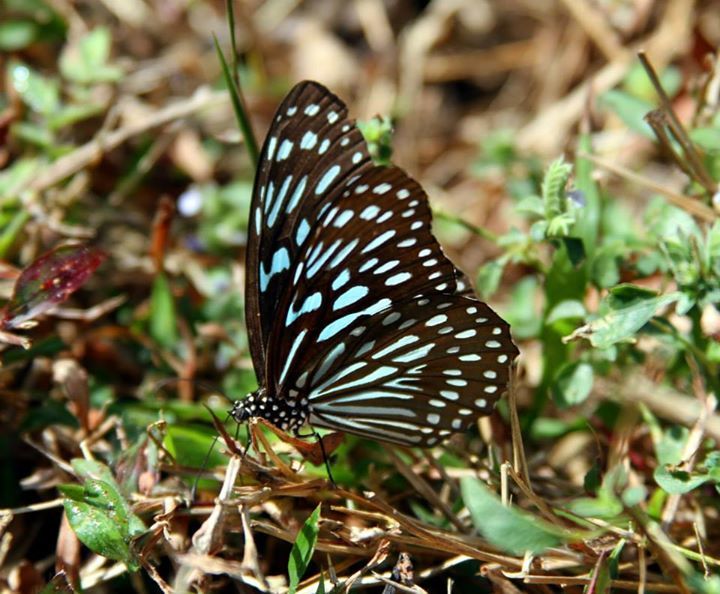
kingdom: Animalia
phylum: Arthropoda
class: Insecta
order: Lepidoptera
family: Nymphalidae
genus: Tirumala
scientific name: Tirumala septentrionis
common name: Dark blue tiger butterfly
